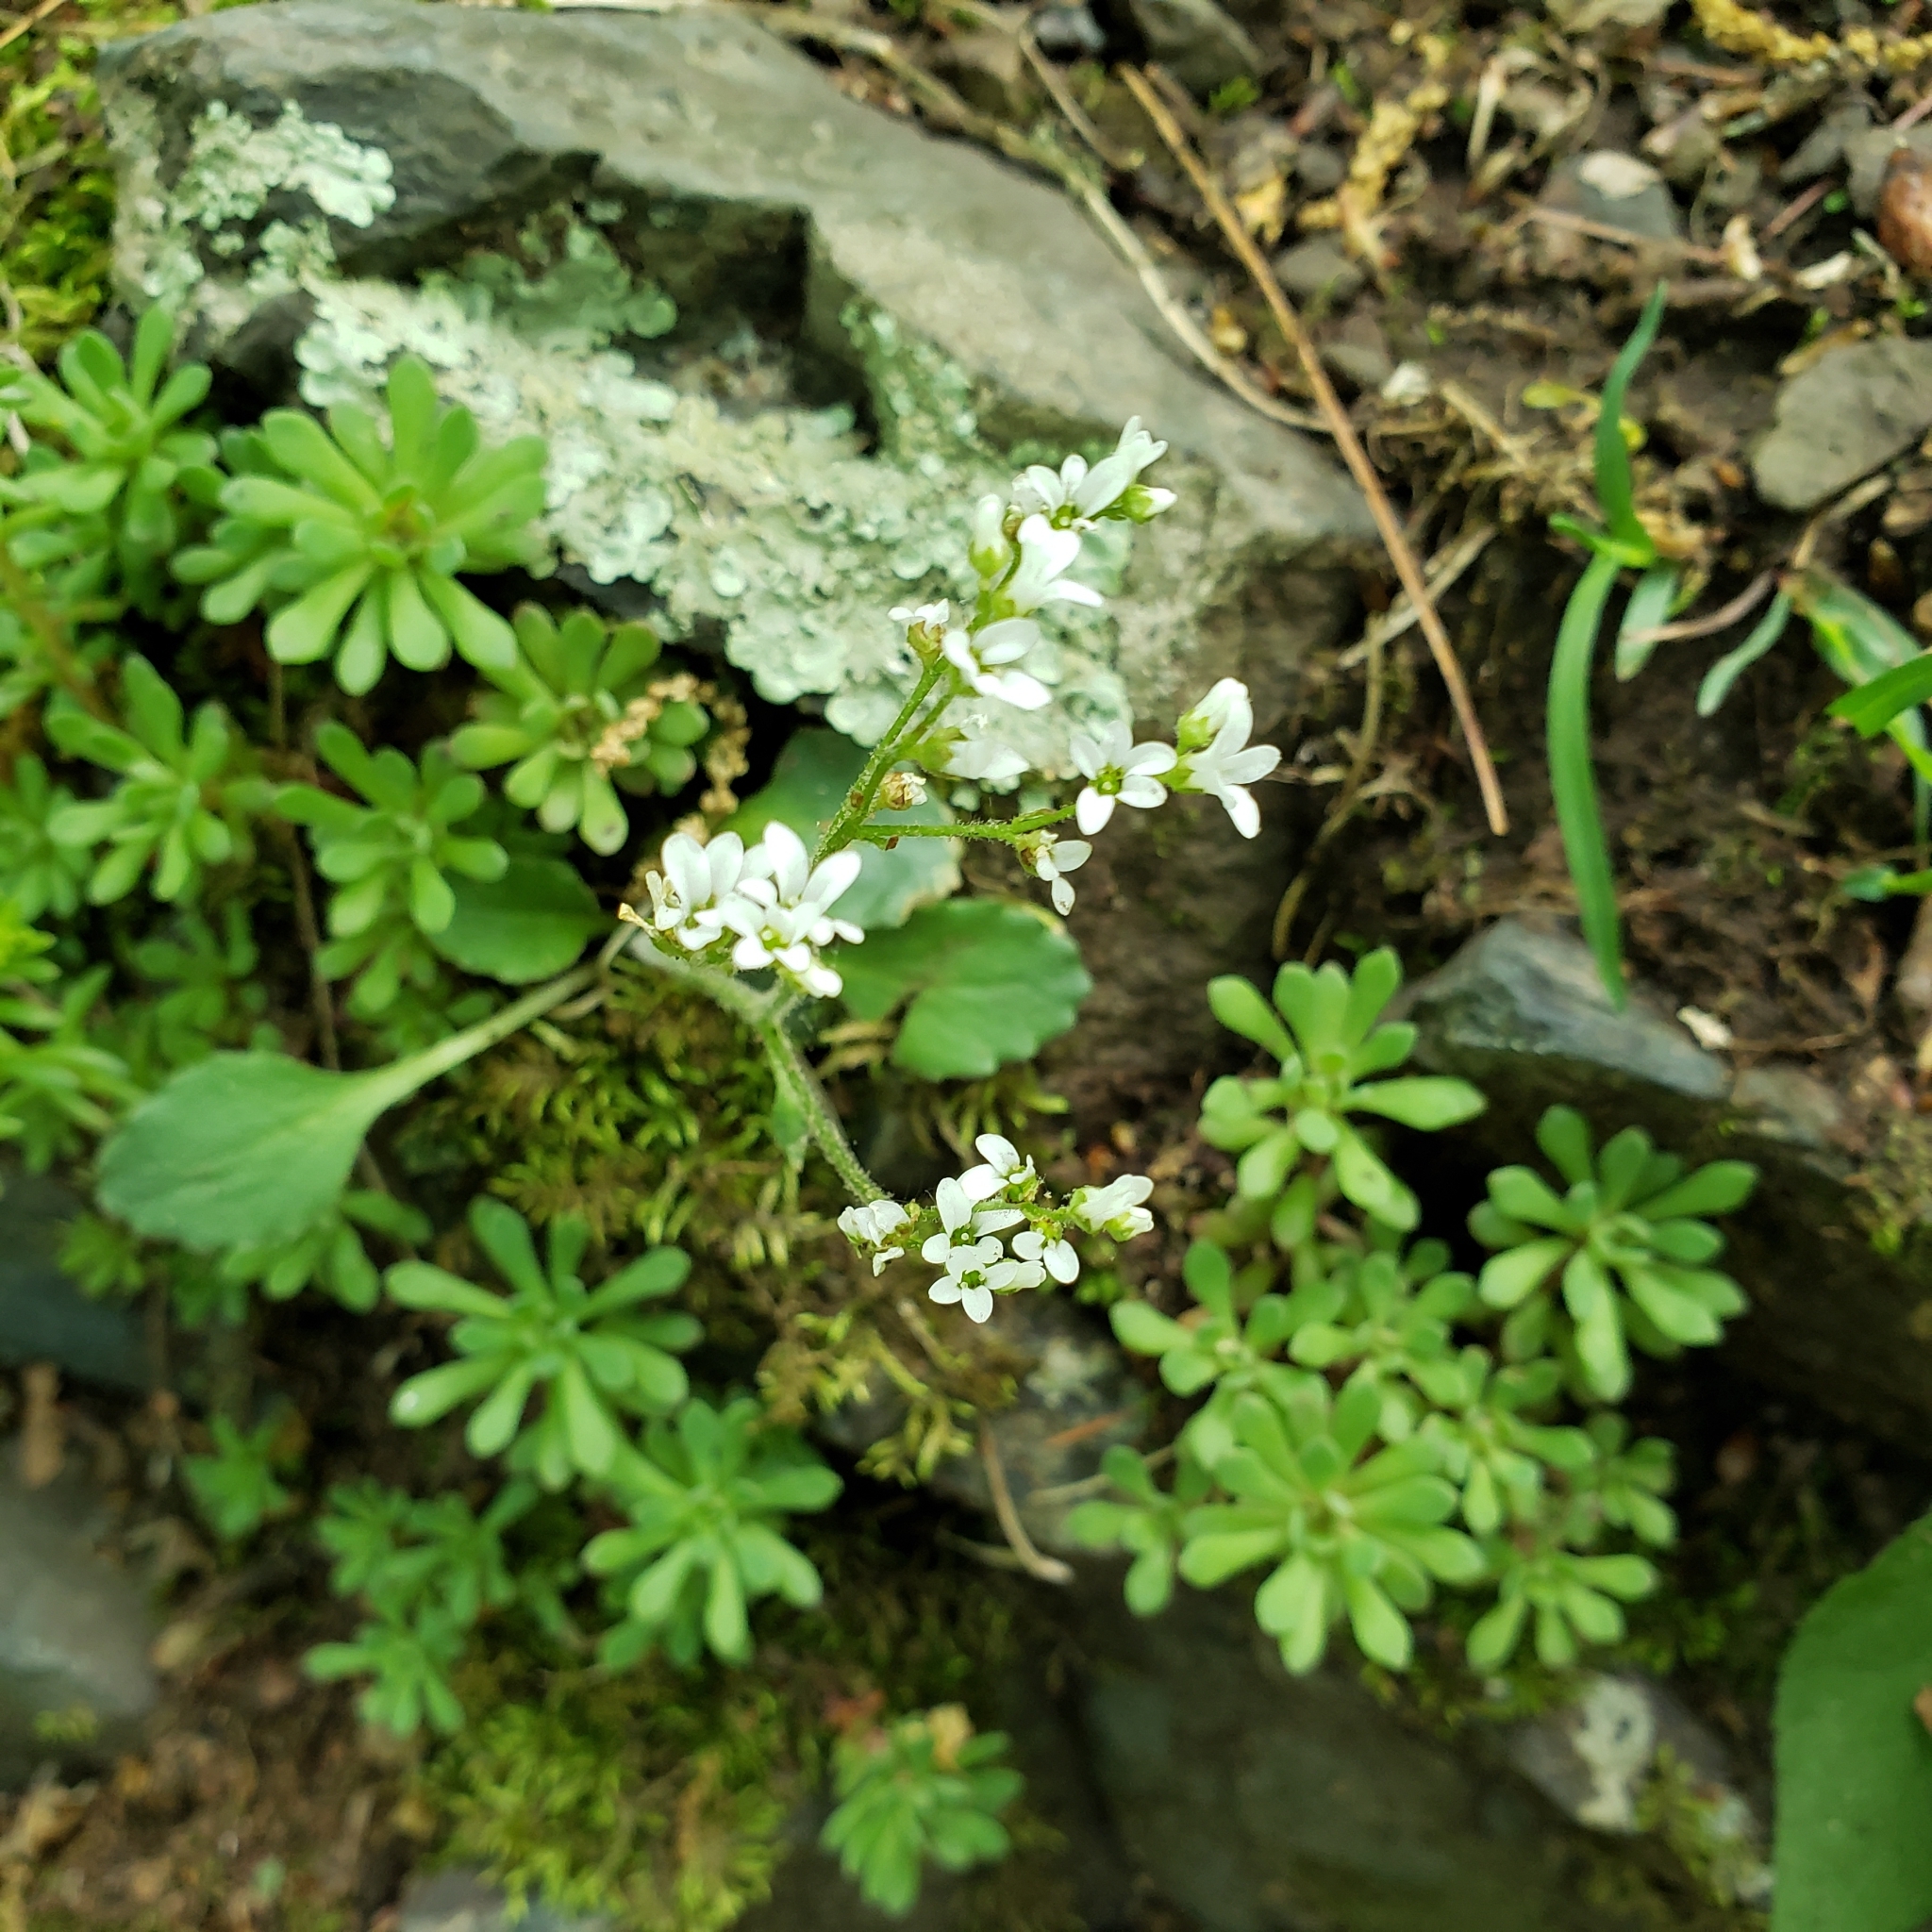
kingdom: Plantae
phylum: Tracheophyta
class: Magnoliopsida
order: Saxifragales
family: Saxifragaceae
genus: Micranthes
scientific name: Micranthes virginiensis
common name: Early saxifrage
